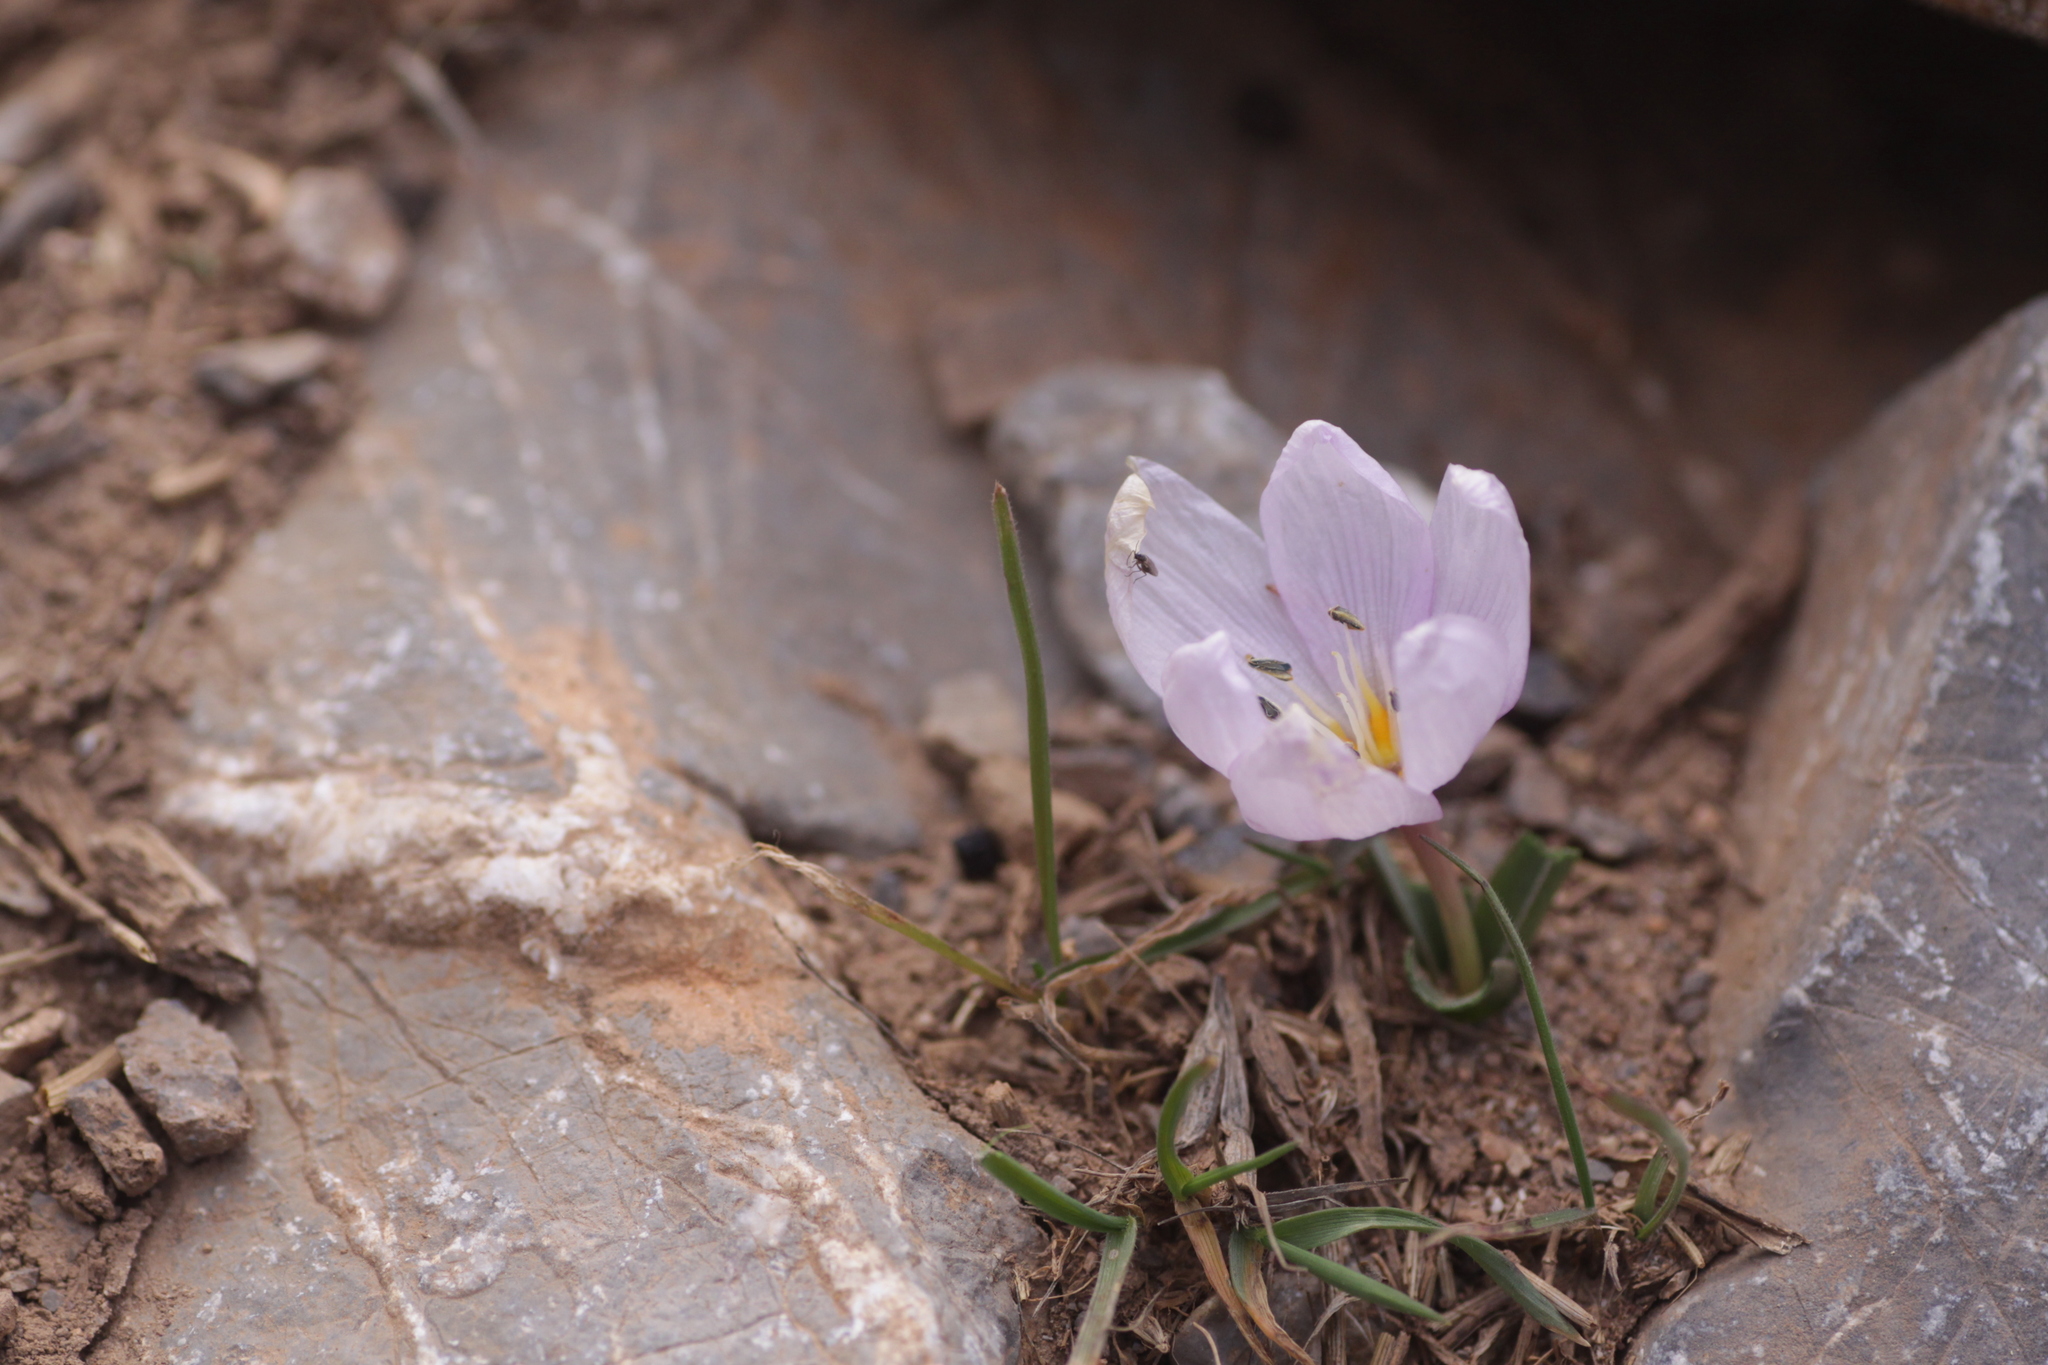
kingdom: Plantae
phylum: Tracheophyta
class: Liliopsida
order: Liliales
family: Colchicaceae
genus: Colchicum
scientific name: Colchicum triphyllum
